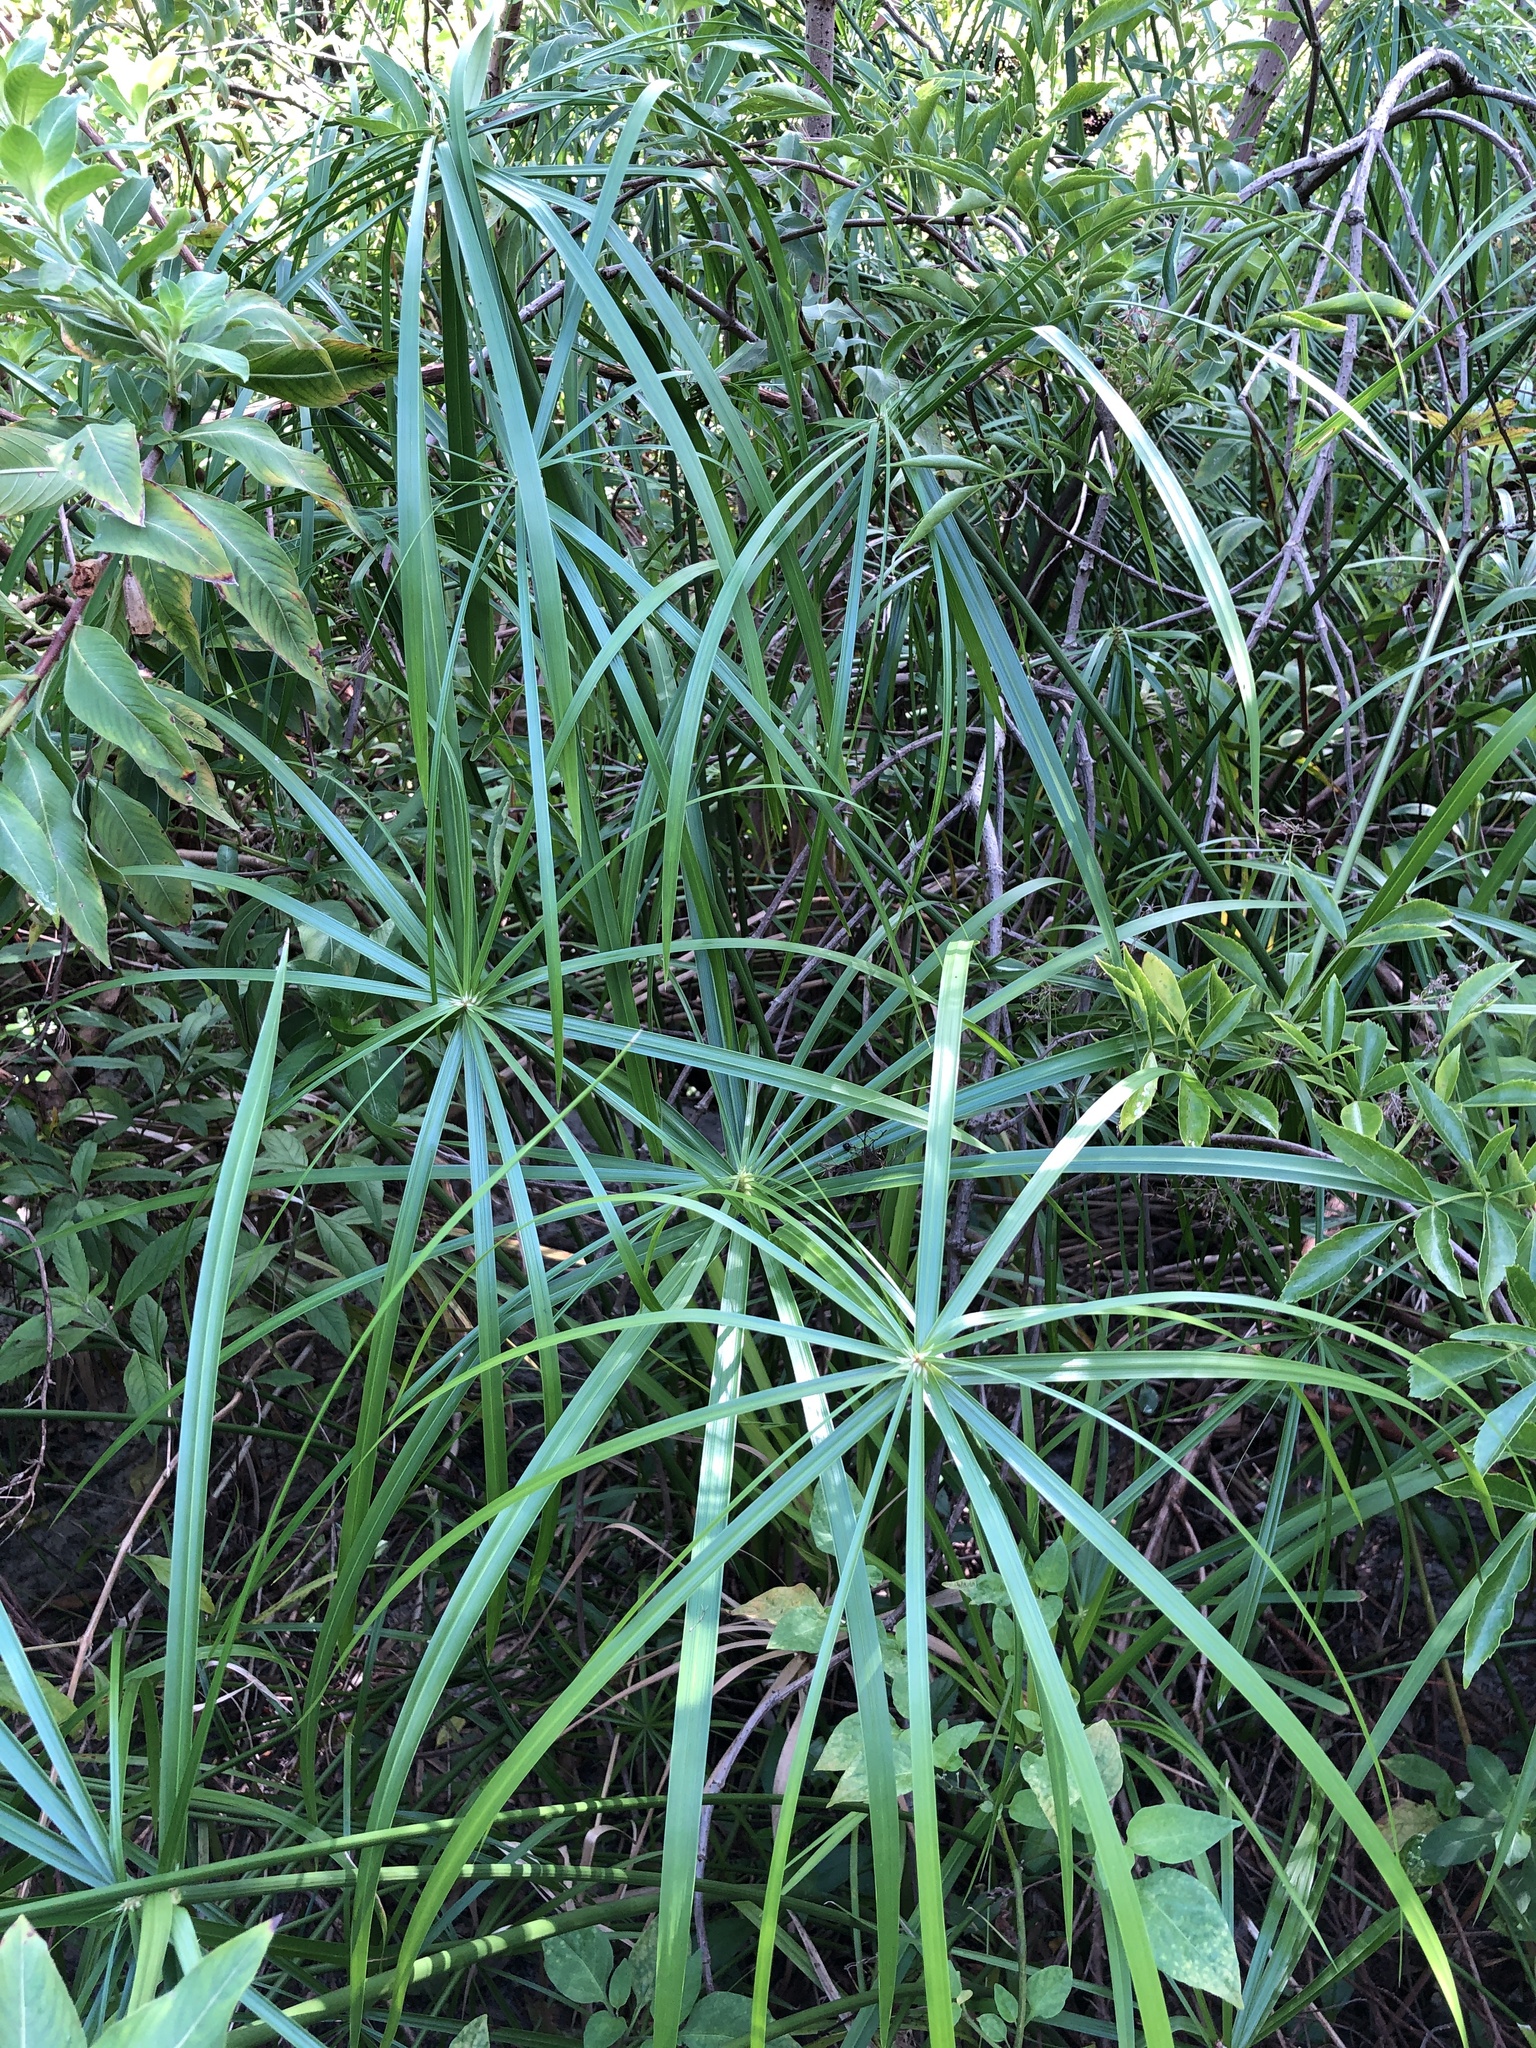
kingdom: Plantae
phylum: Tracheophyta
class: Liliopsida
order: Poales
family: Cyperaceae
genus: Cyperus
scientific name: Cyperus alternifolius
